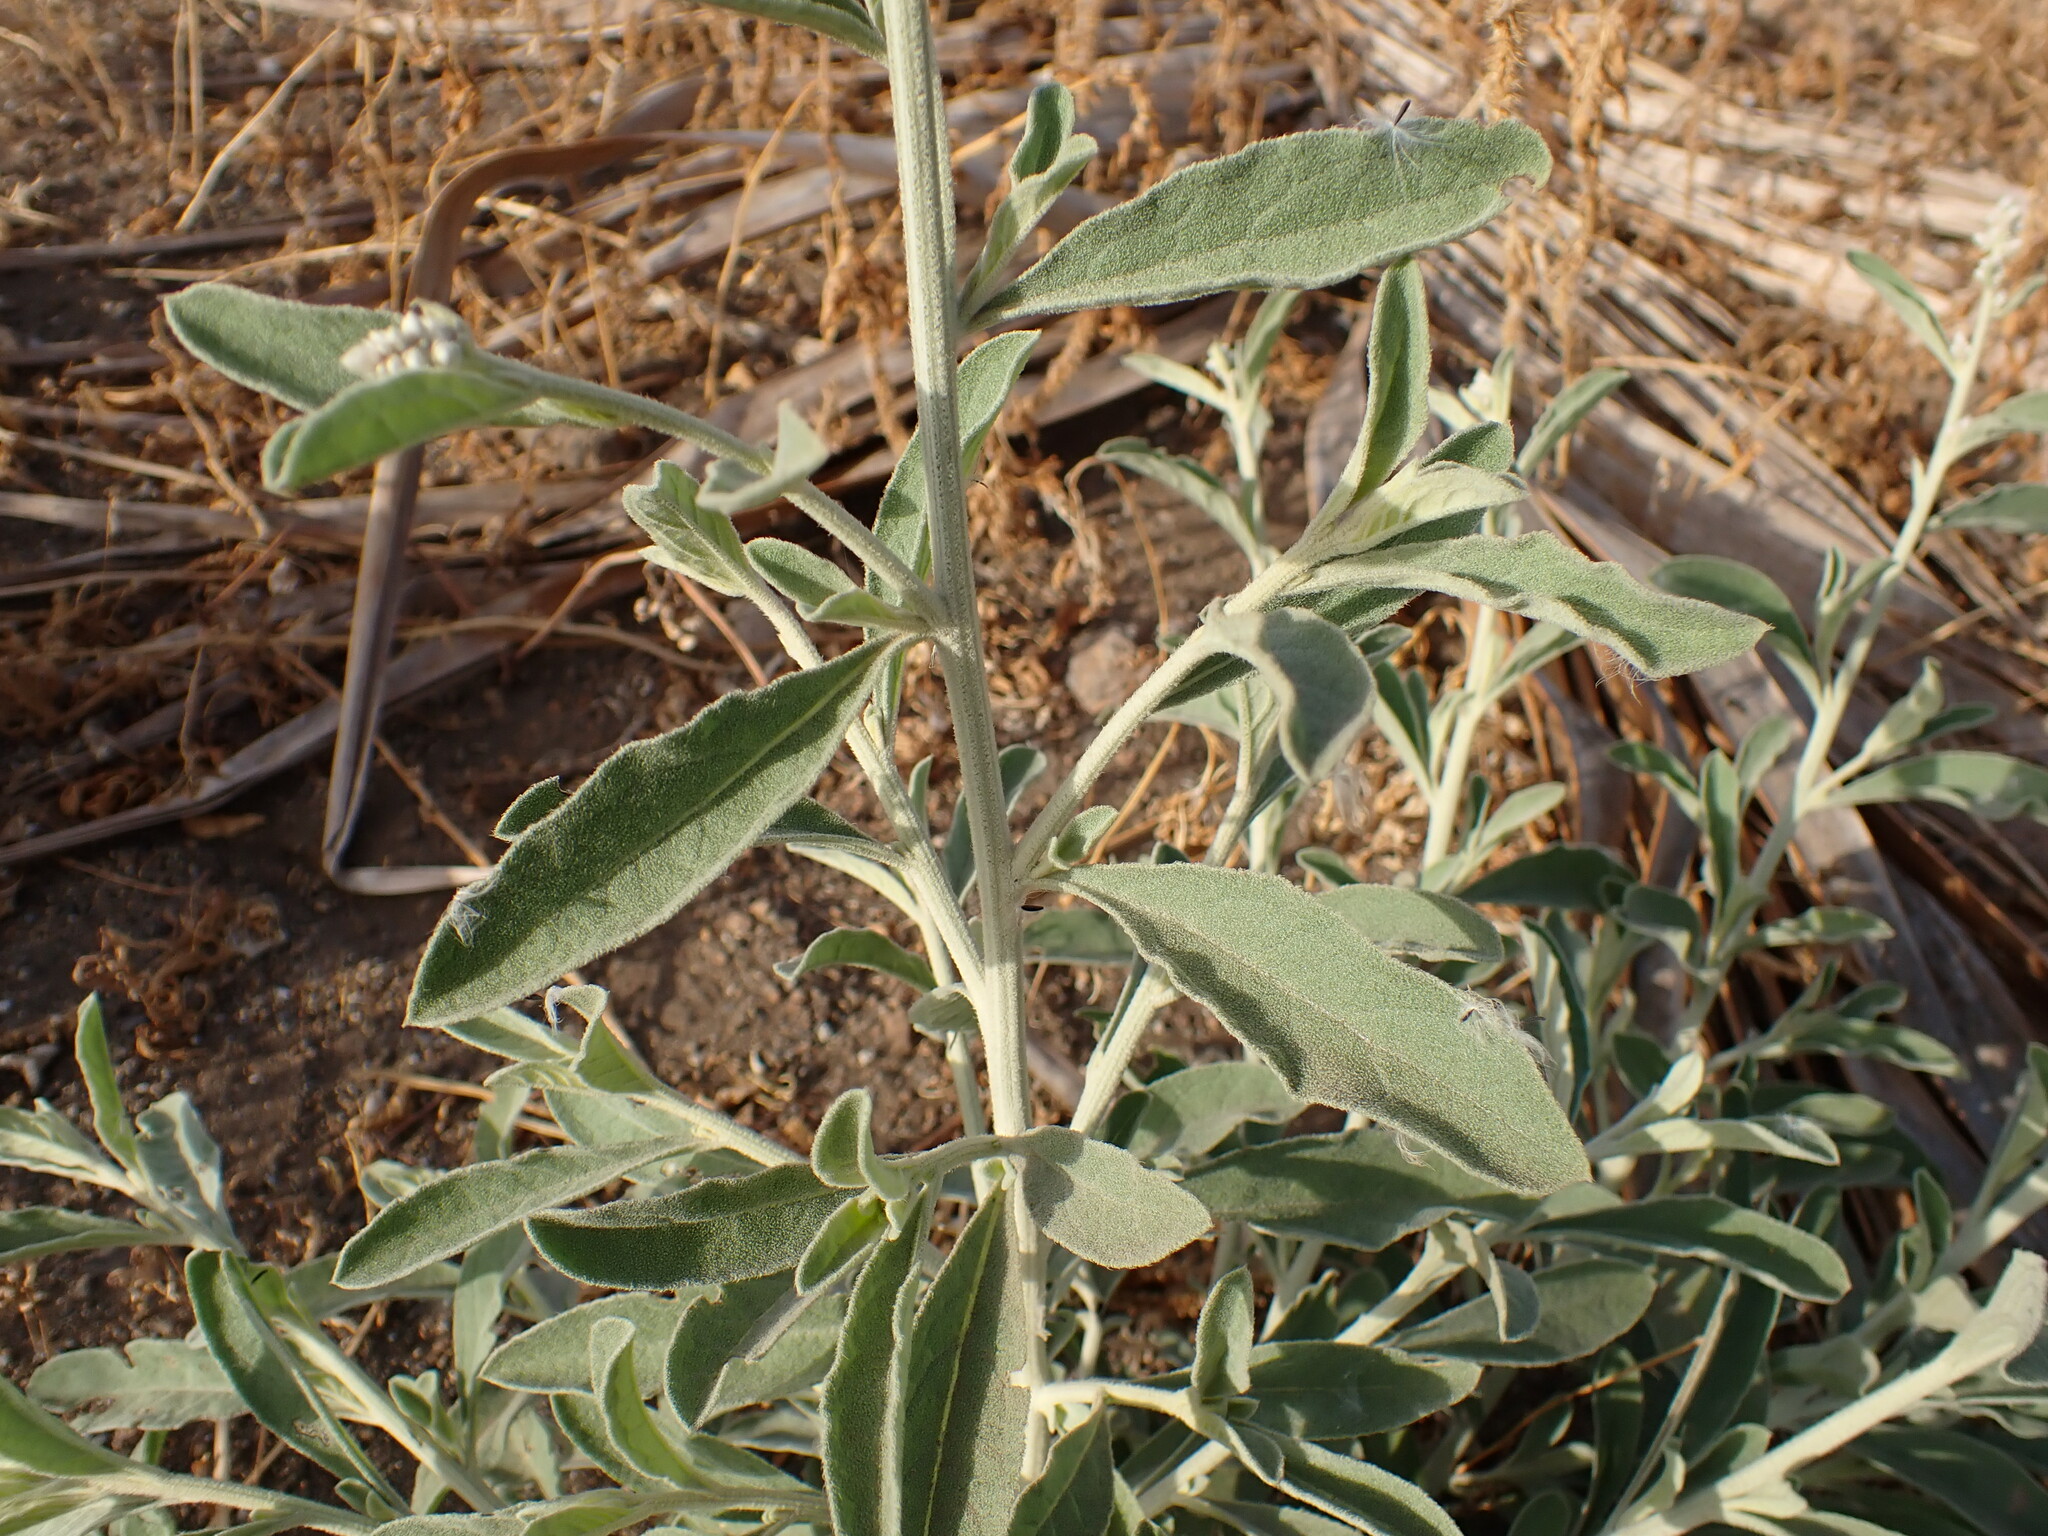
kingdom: Plantae
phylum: Tracheophyta
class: Magnoliopsida
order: Caryophyllales
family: Amaranthaceae
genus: Aerva
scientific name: Aerva javanica
